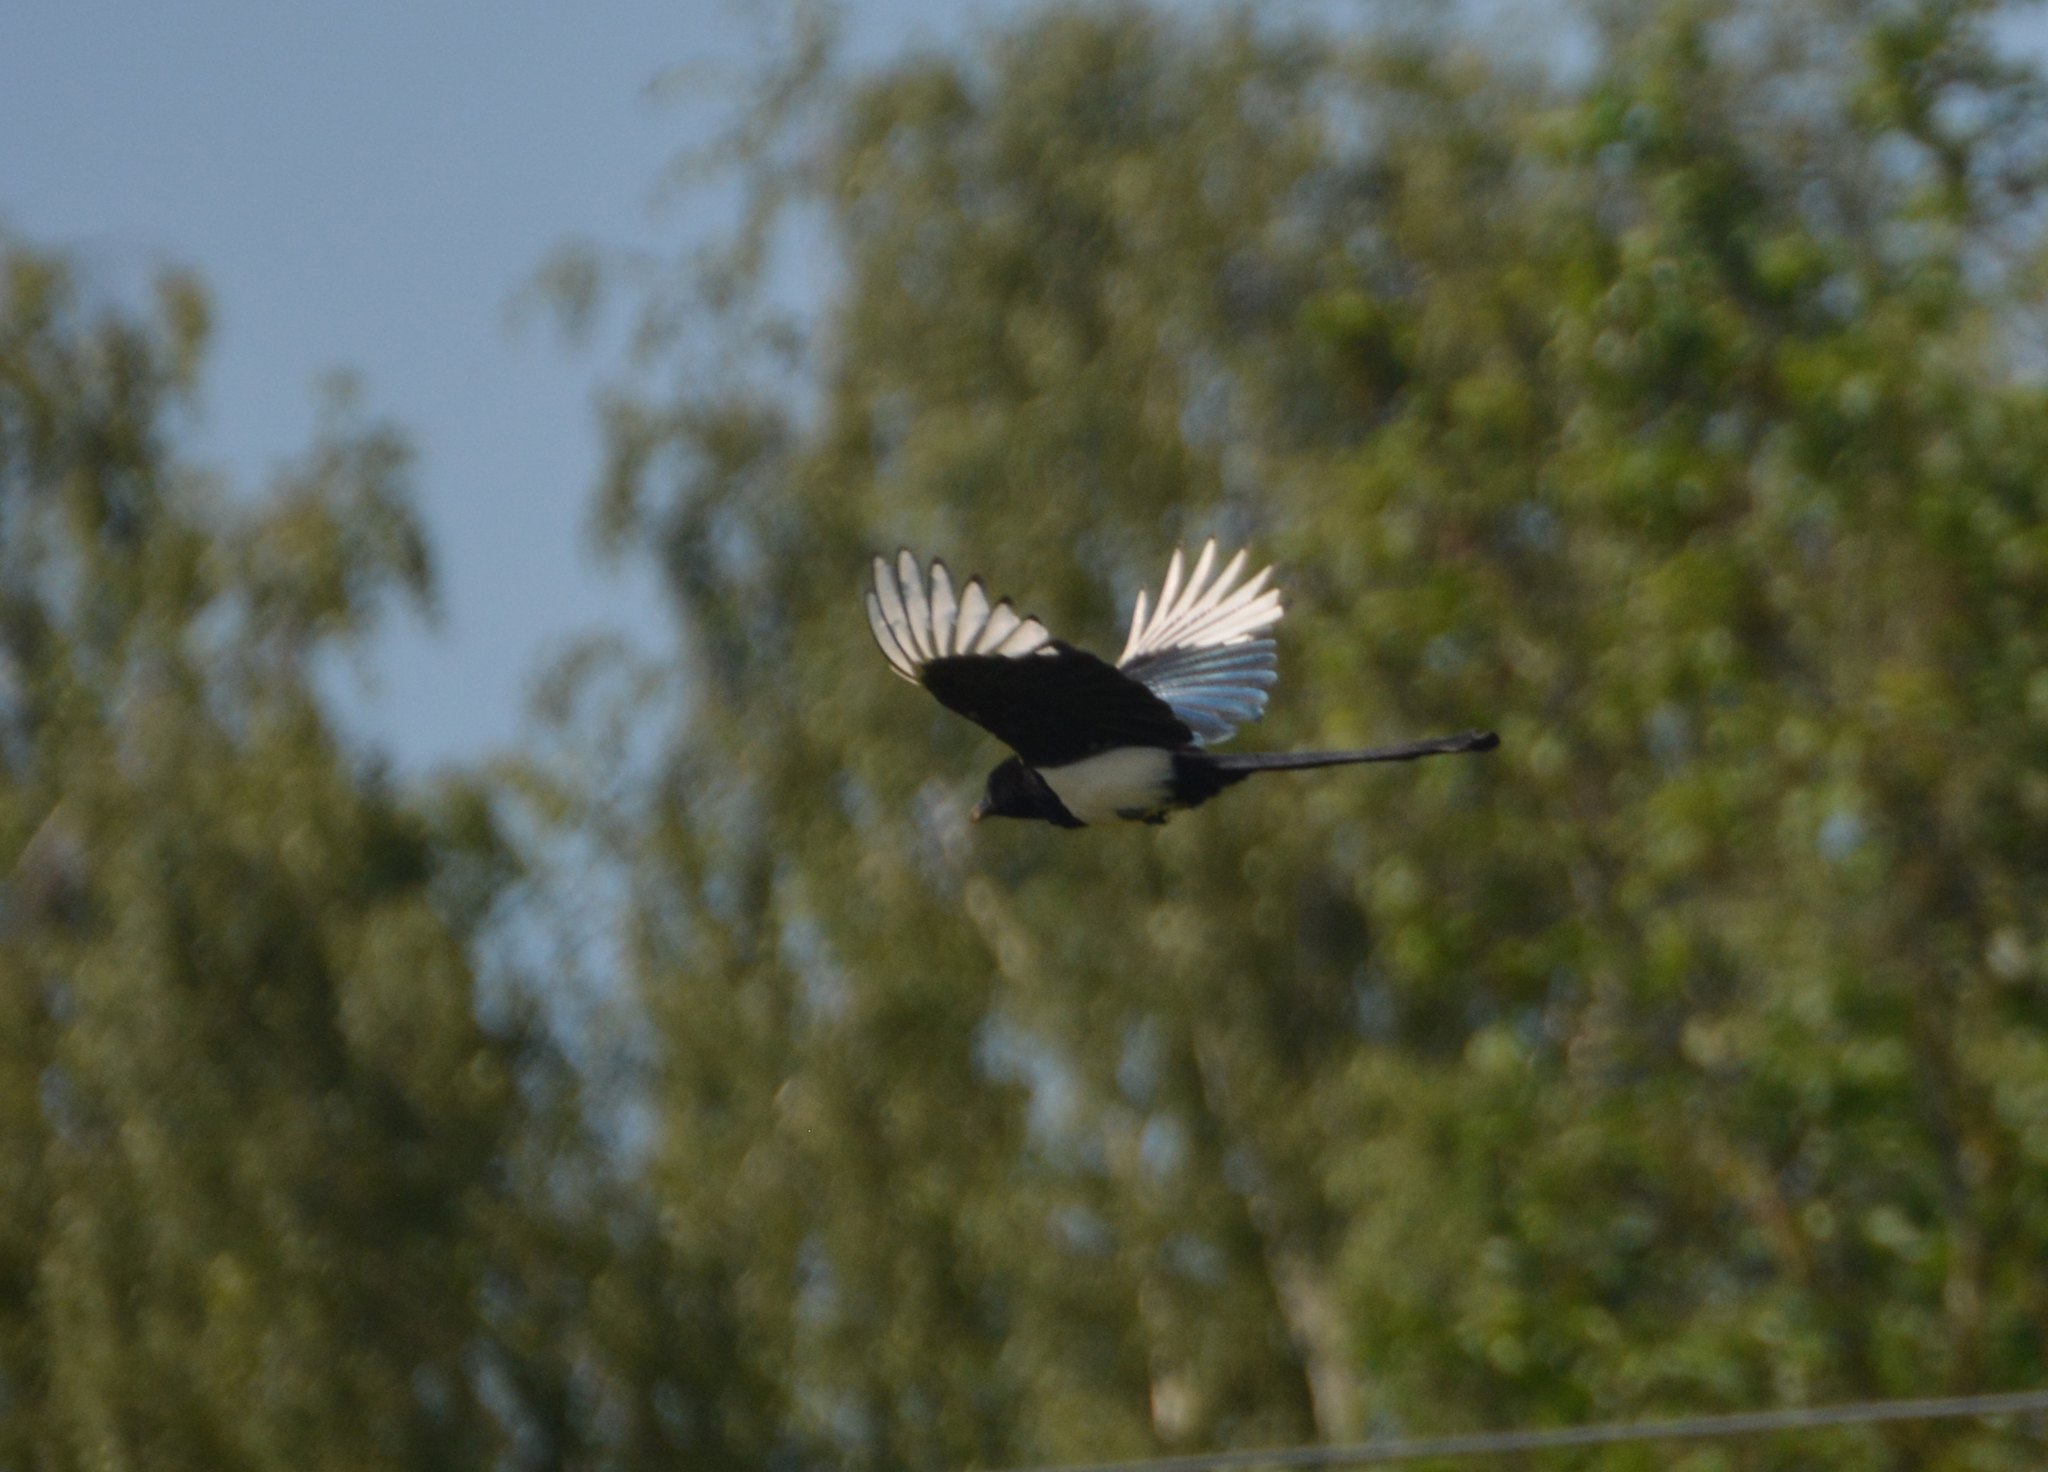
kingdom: Animalia
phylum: Chordata
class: Aves
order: Passeriformes
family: Corvidae
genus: Pica
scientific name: Pica pica
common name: Eurasian magpie
